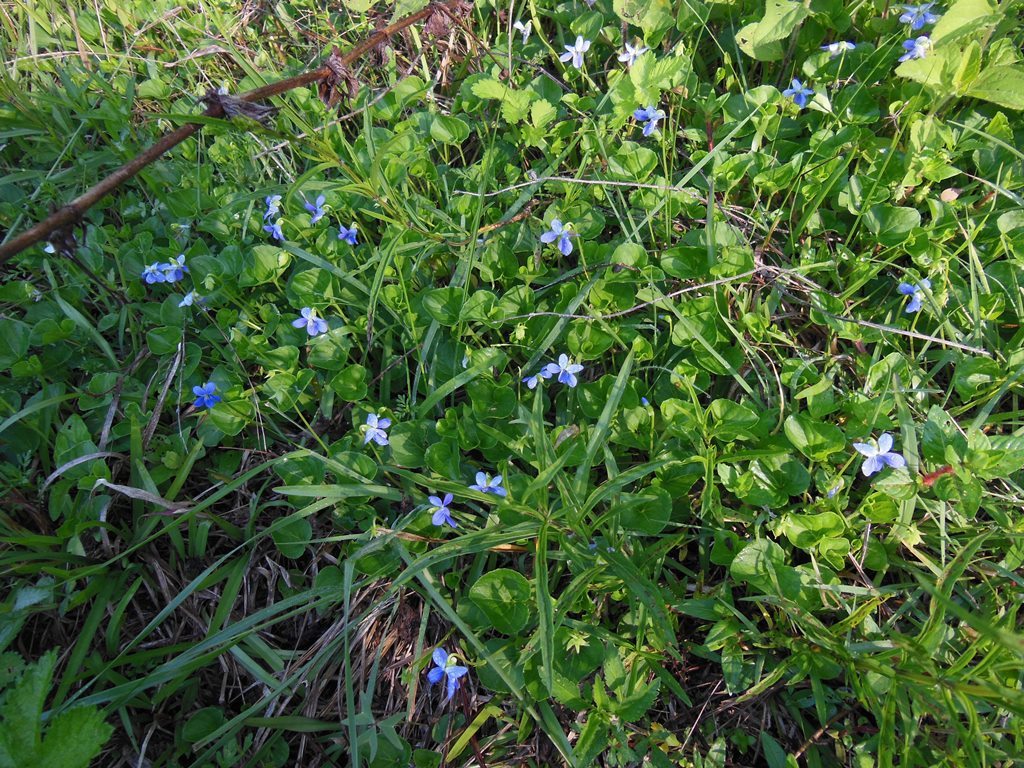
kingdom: Plantae
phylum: Tracheophyta
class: Magnoliopsida
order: Malpighiales
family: Violaceae
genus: Viola
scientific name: Viola hookeriana
